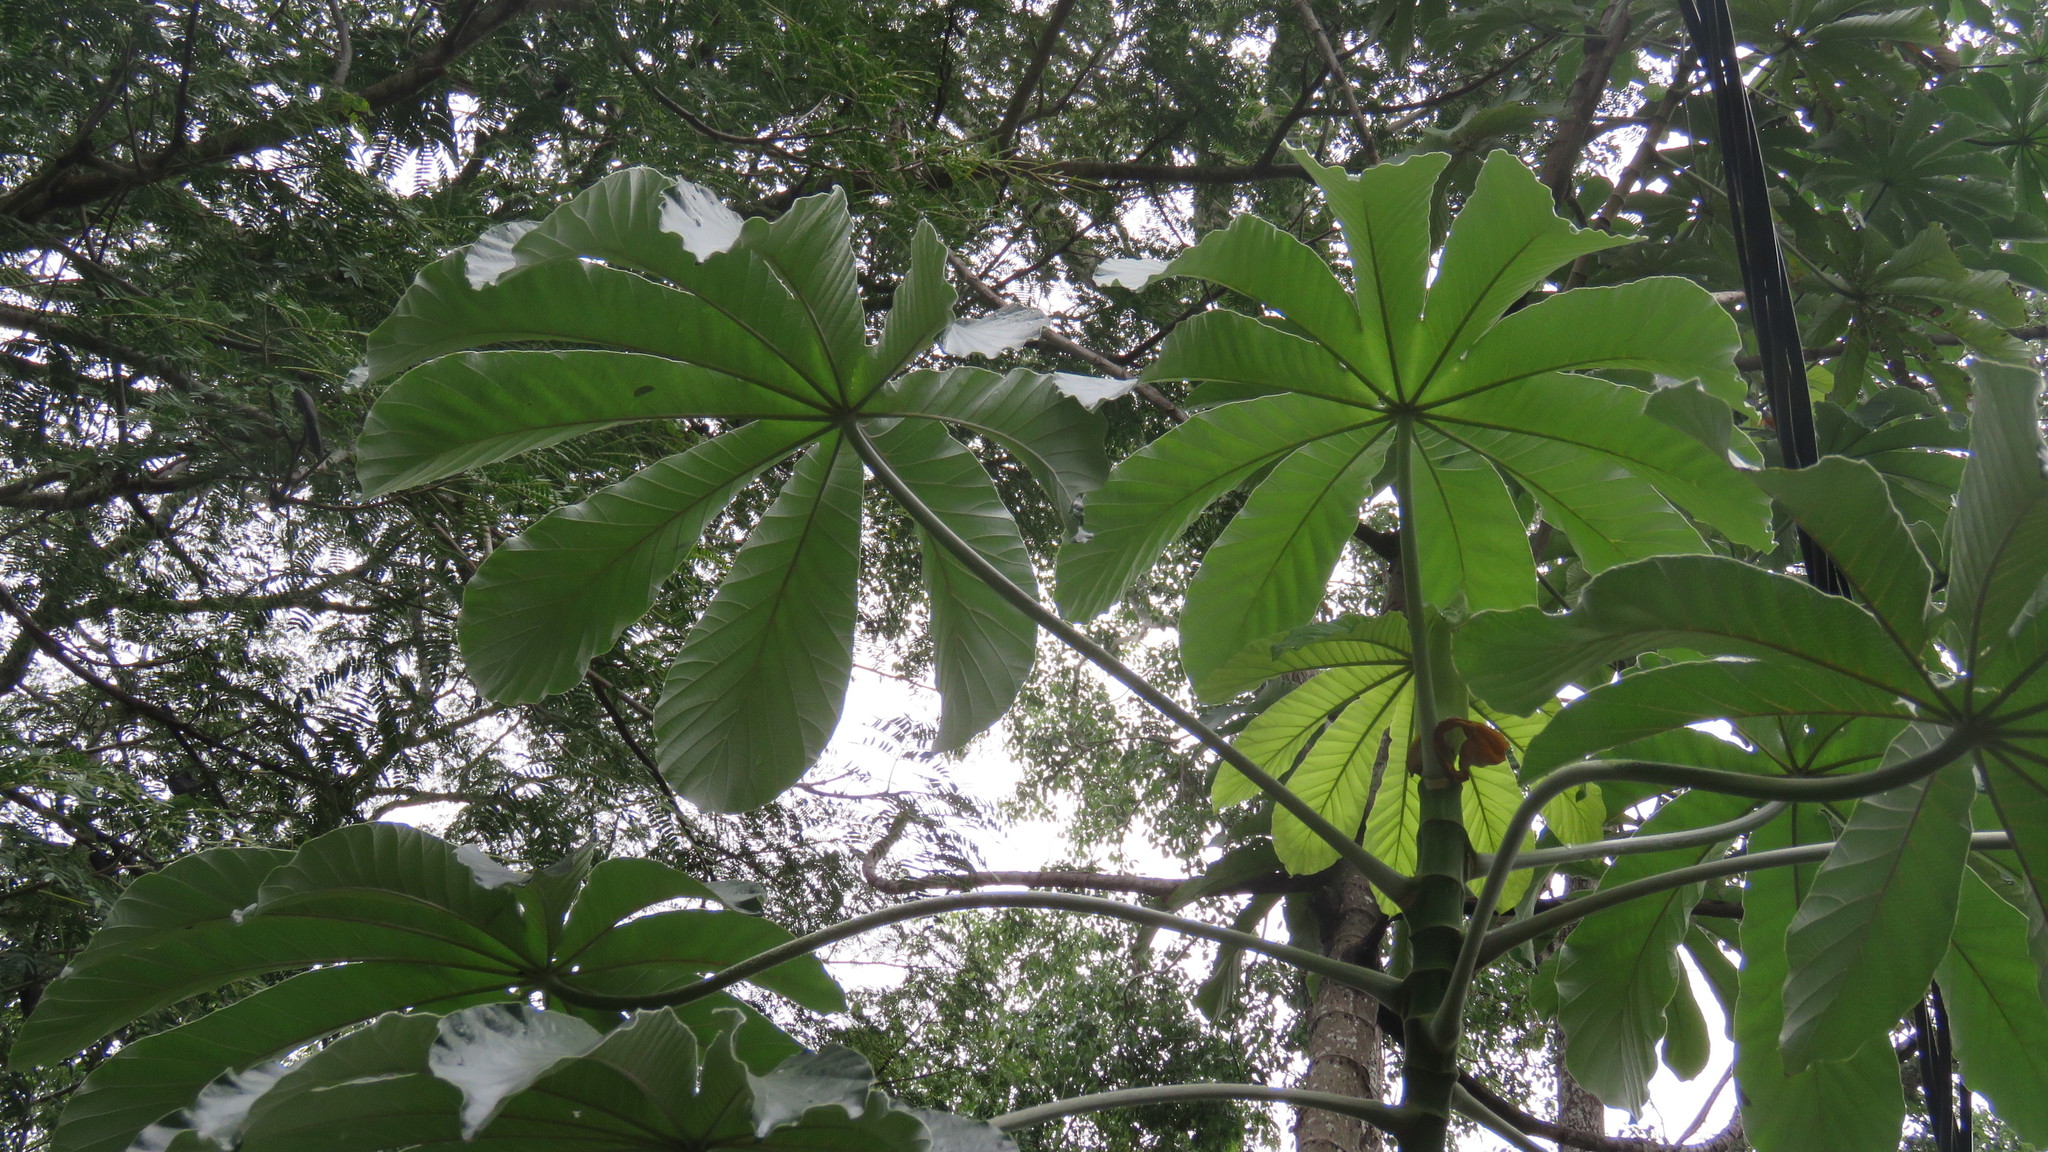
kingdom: Plantae
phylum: Tracheophyta
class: Magnoliopsida
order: Rosales
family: Urticaceae
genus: Cecropia
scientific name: Cecropia pachystachya
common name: Ambay pumpwood
